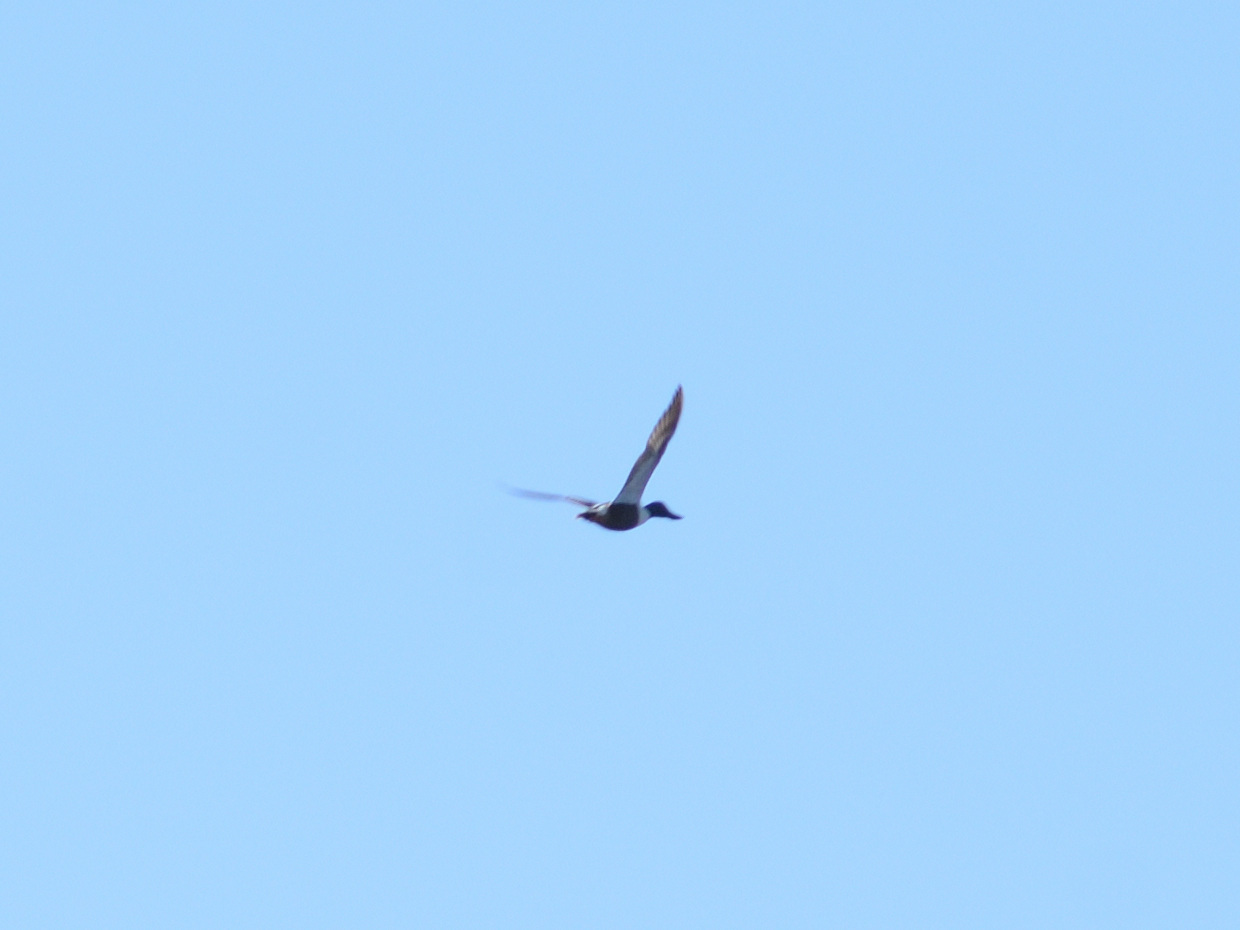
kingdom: Animalia
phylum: Chordata
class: Aves
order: Anseriformes
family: Anatidae
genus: Spatula
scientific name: Spatula clypeata
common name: Northern shoveler
